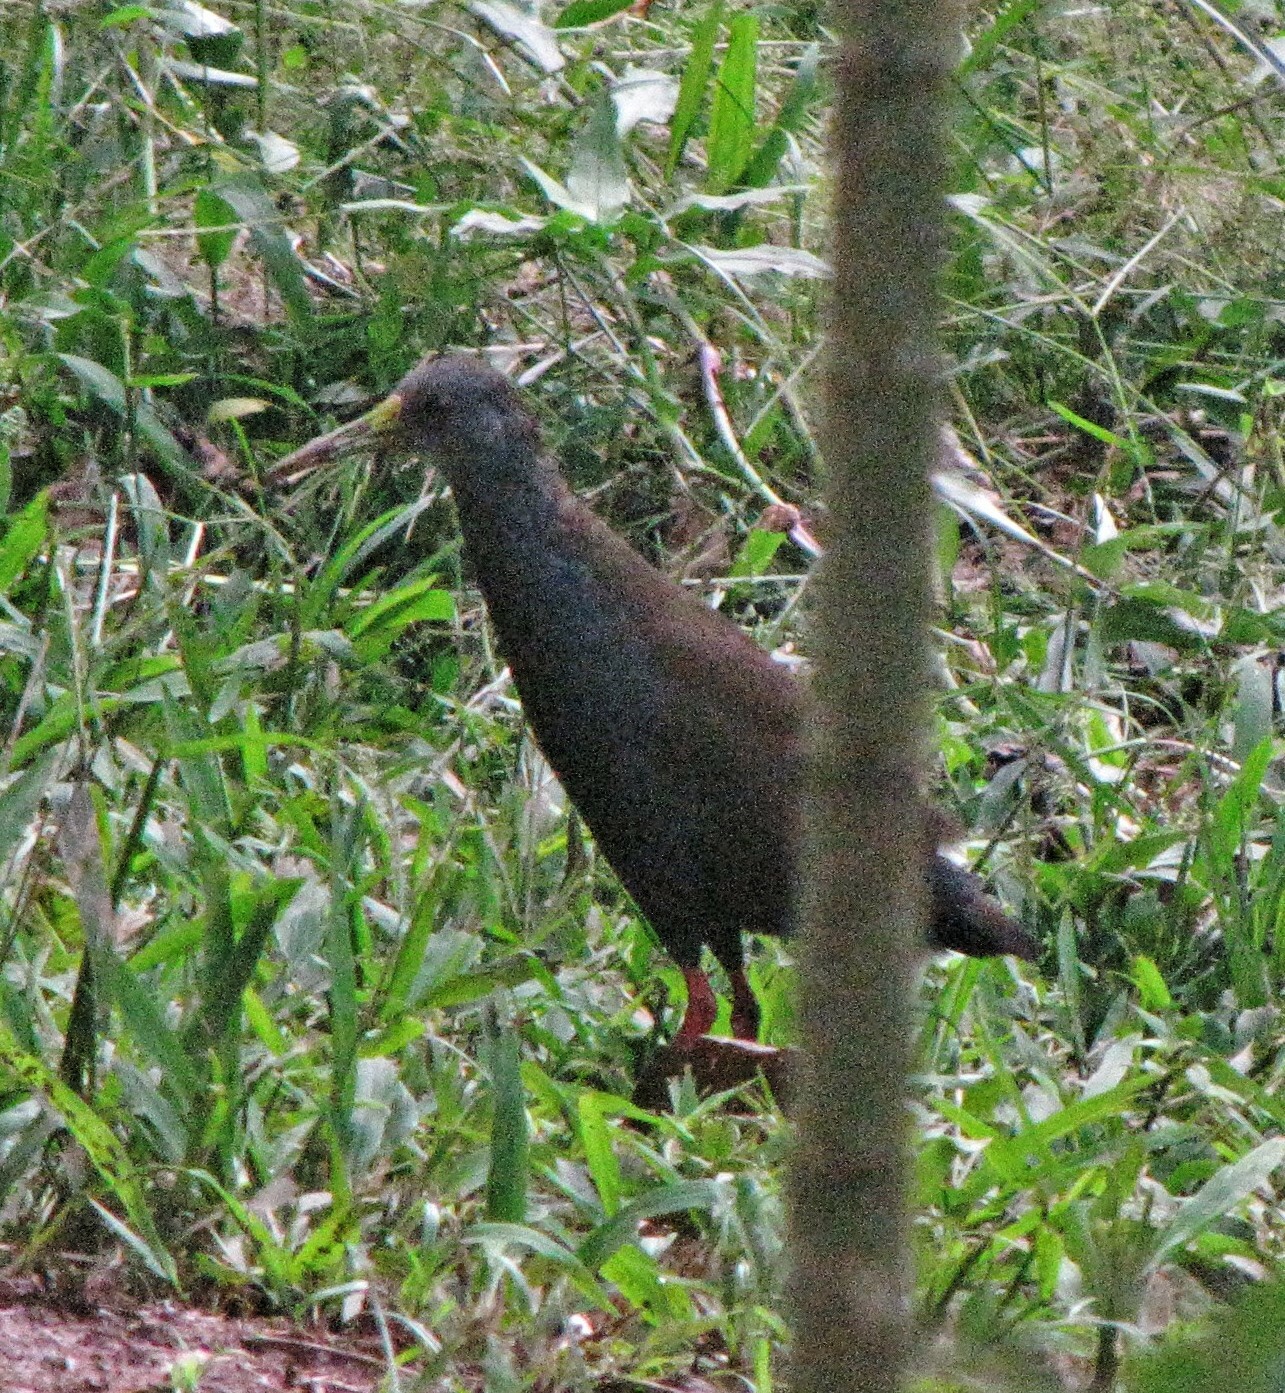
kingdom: Animalia
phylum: Chordata
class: Aves
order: Gruiformes
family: Rallidae
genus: Pardirallus
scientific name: Pardirallus nigricans
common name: Blackish rail
